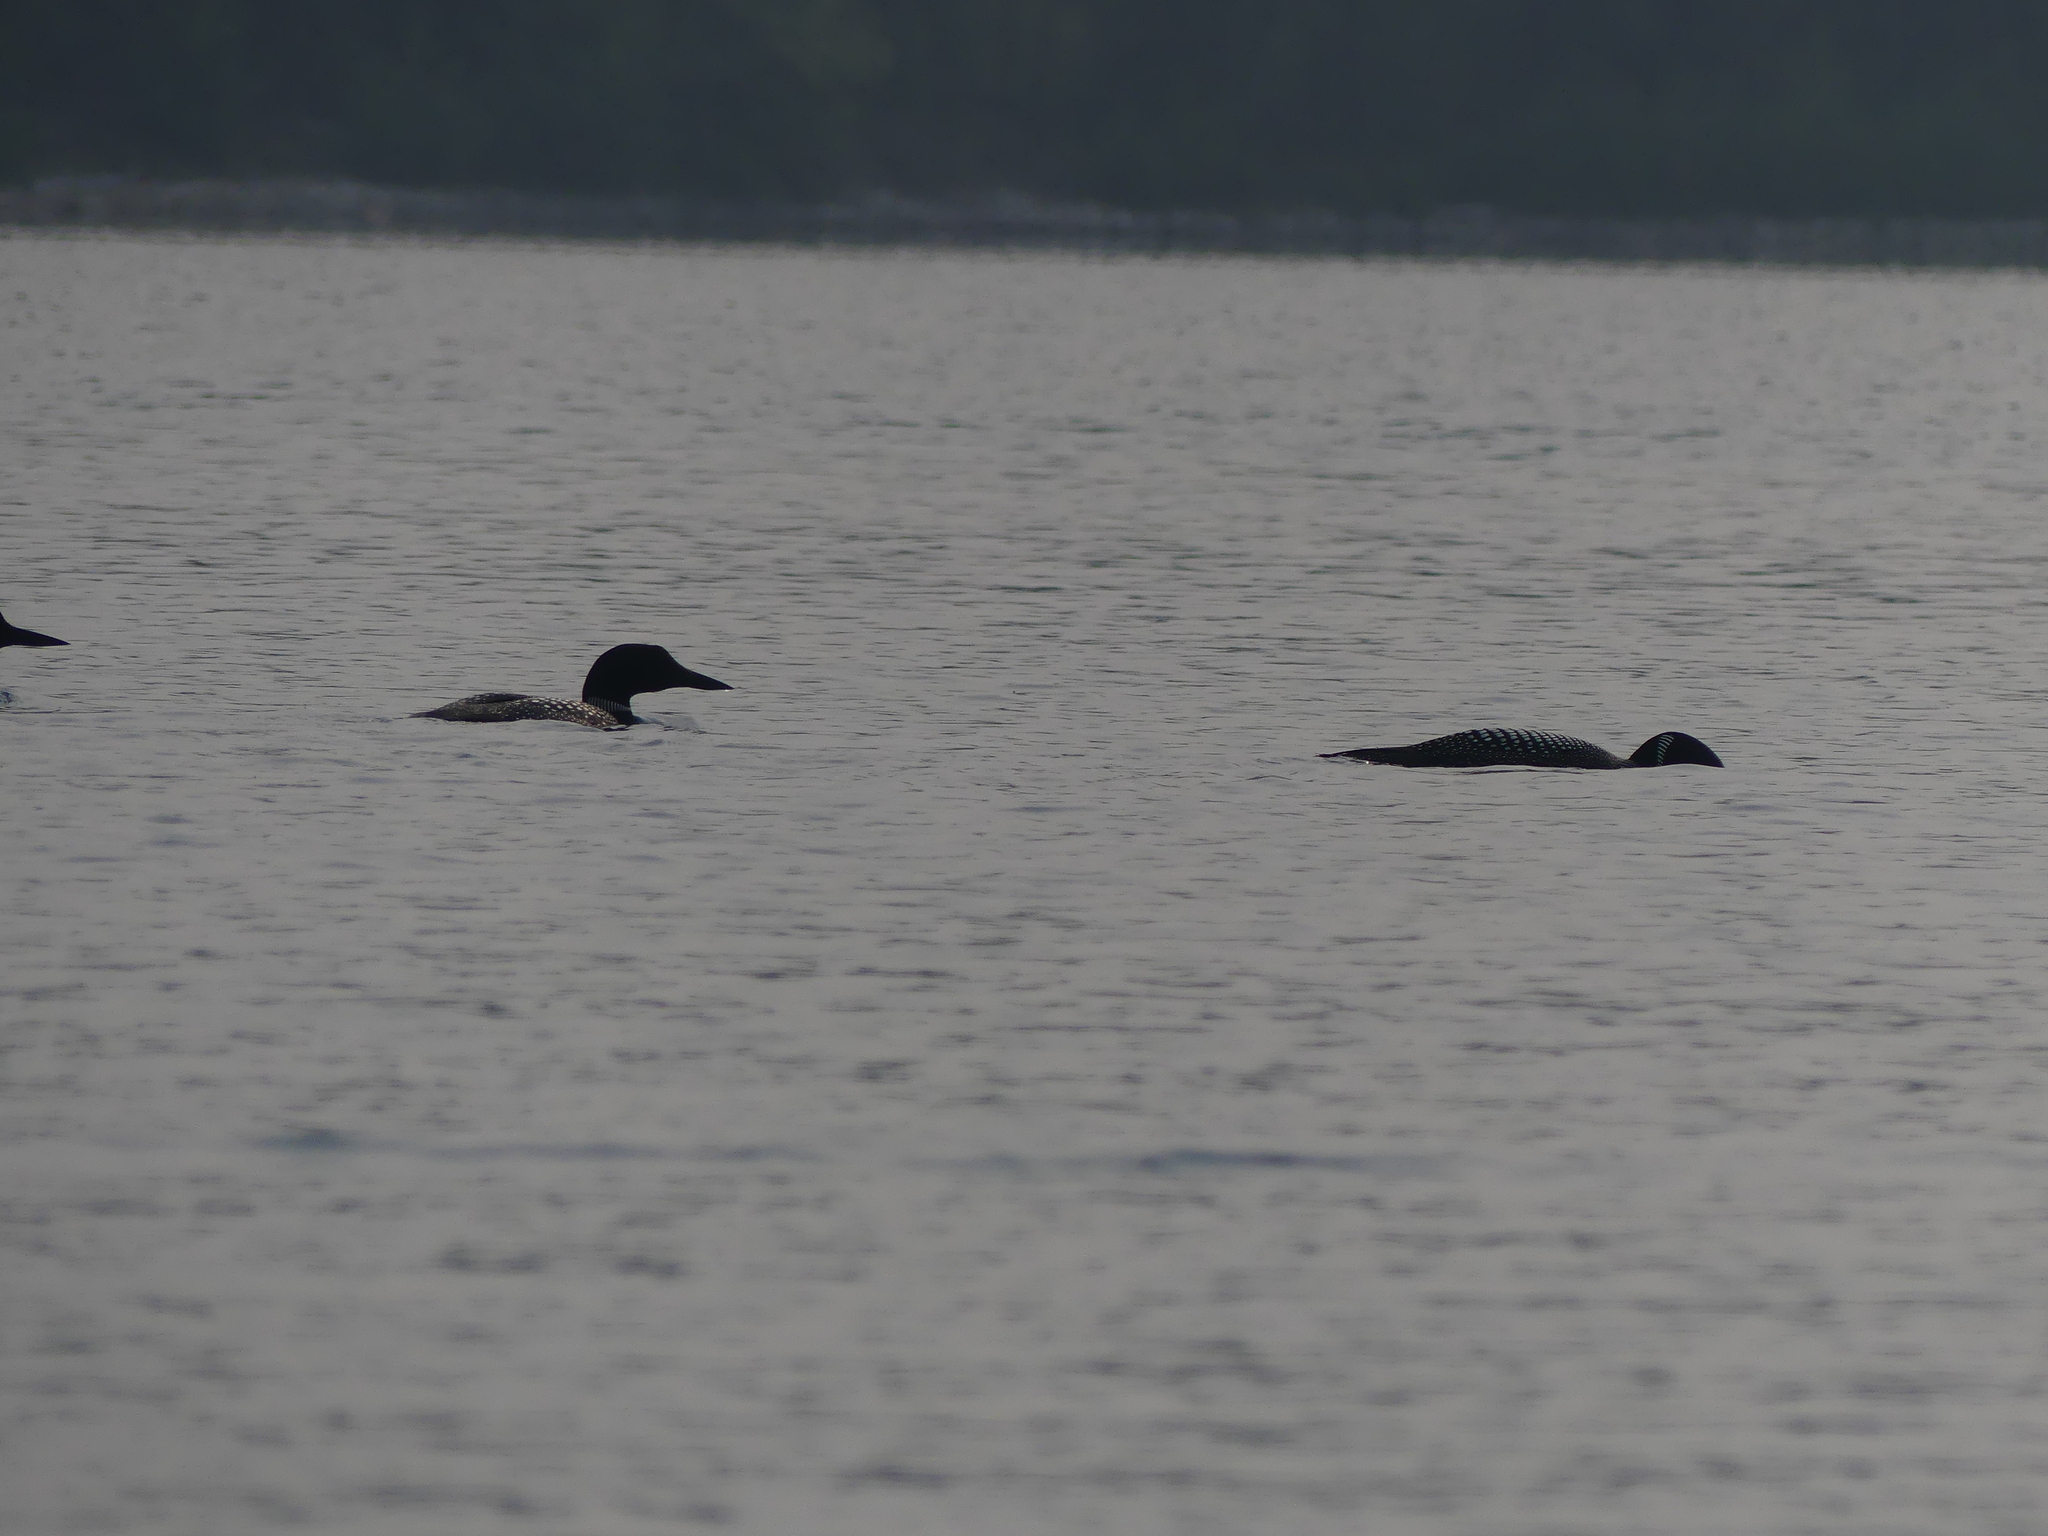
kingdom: Animalia
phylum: Chordata
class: Aves
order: Gaviiformes
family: Gaviidae
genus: Gavia
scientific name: Gavia immer
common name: Common loon
